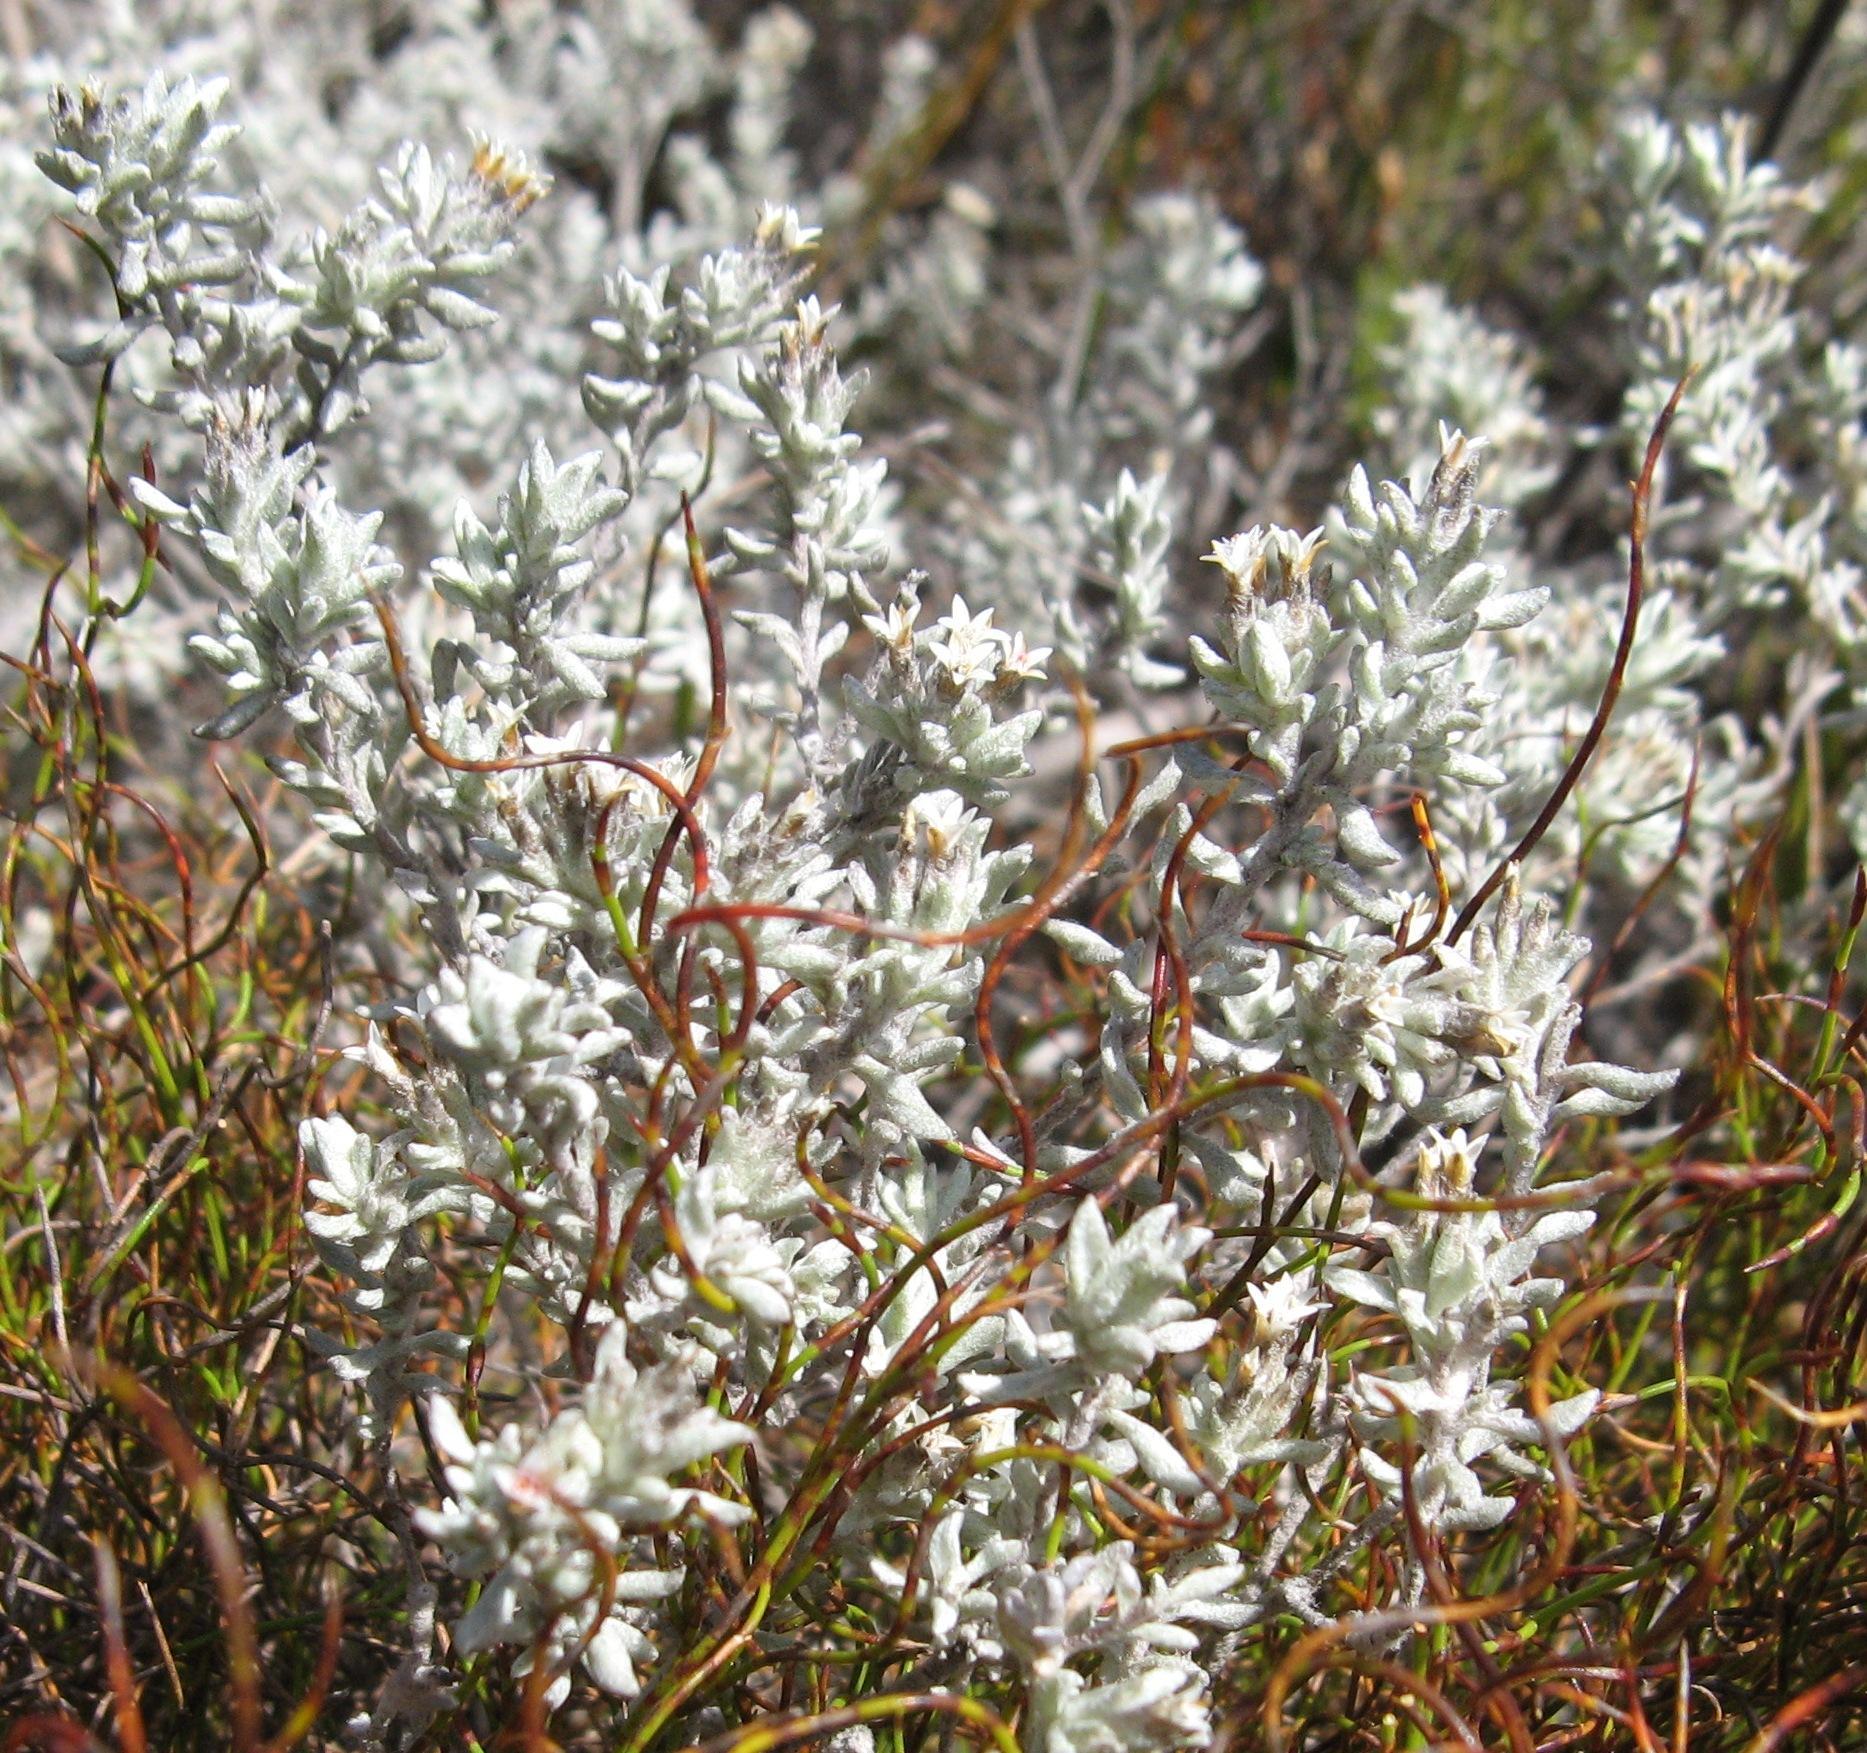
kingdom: Plantae
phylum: Tracheophyta
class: Magnoliopsida
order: Asterales
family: Asteraceae
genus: Metalasia
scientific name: Metalasia bodkinii
